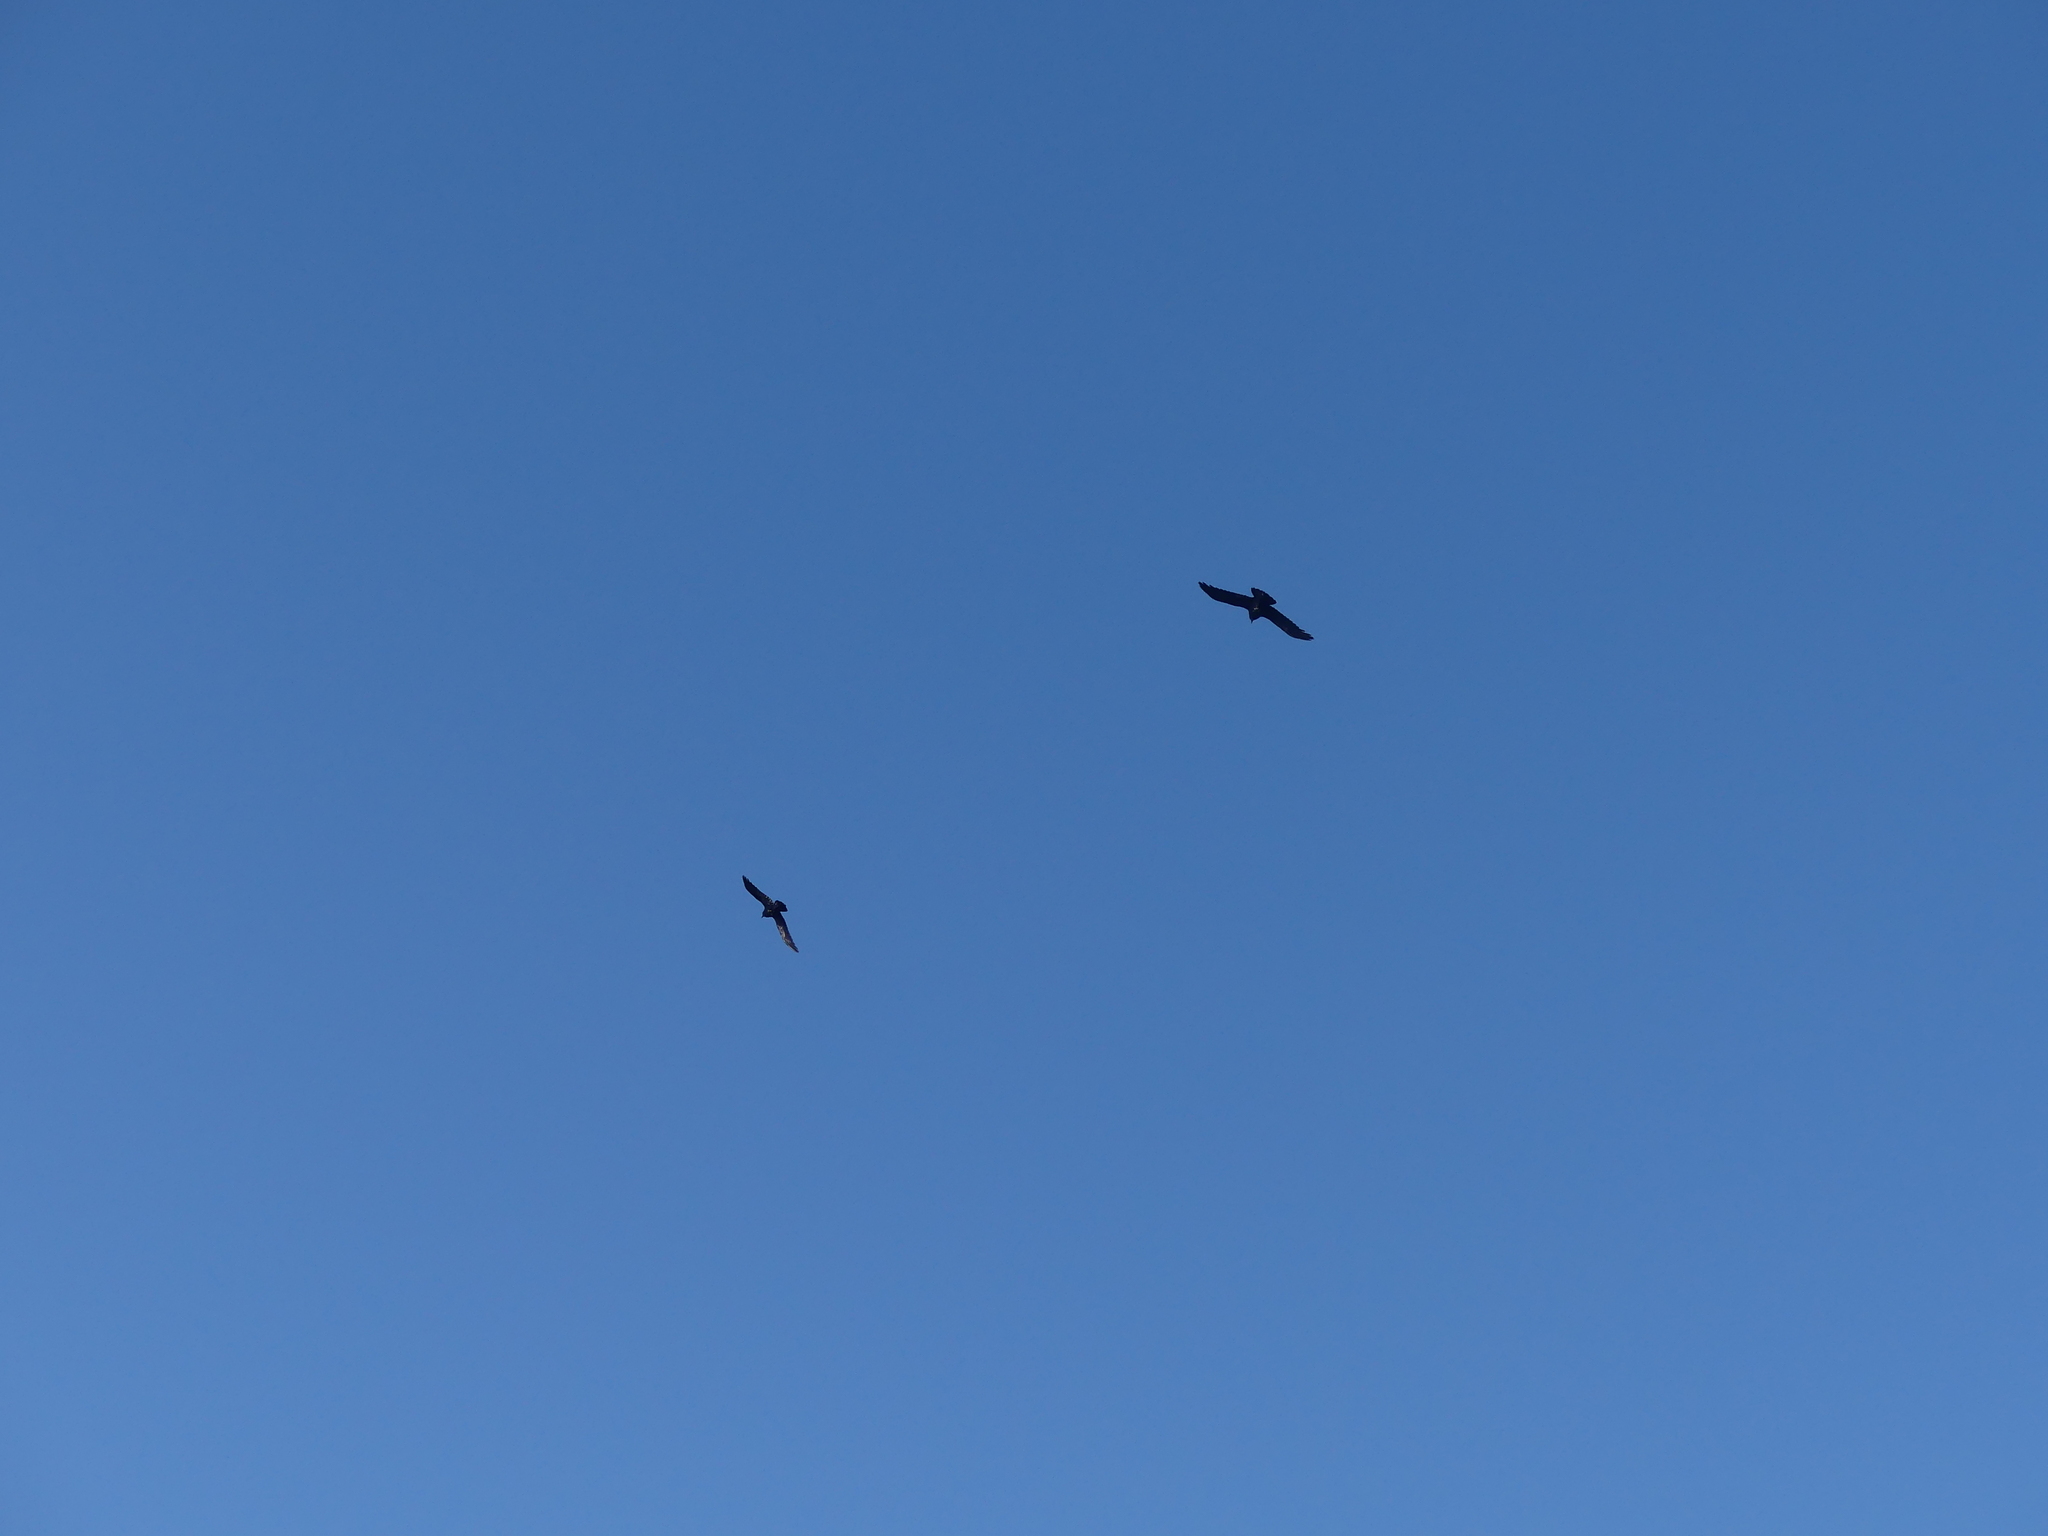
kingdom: Animalia
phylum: Chordata
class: Aves
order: Passeriformes
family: Corvidae
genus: Corvus
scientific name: Corvus corax
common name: Common raven
